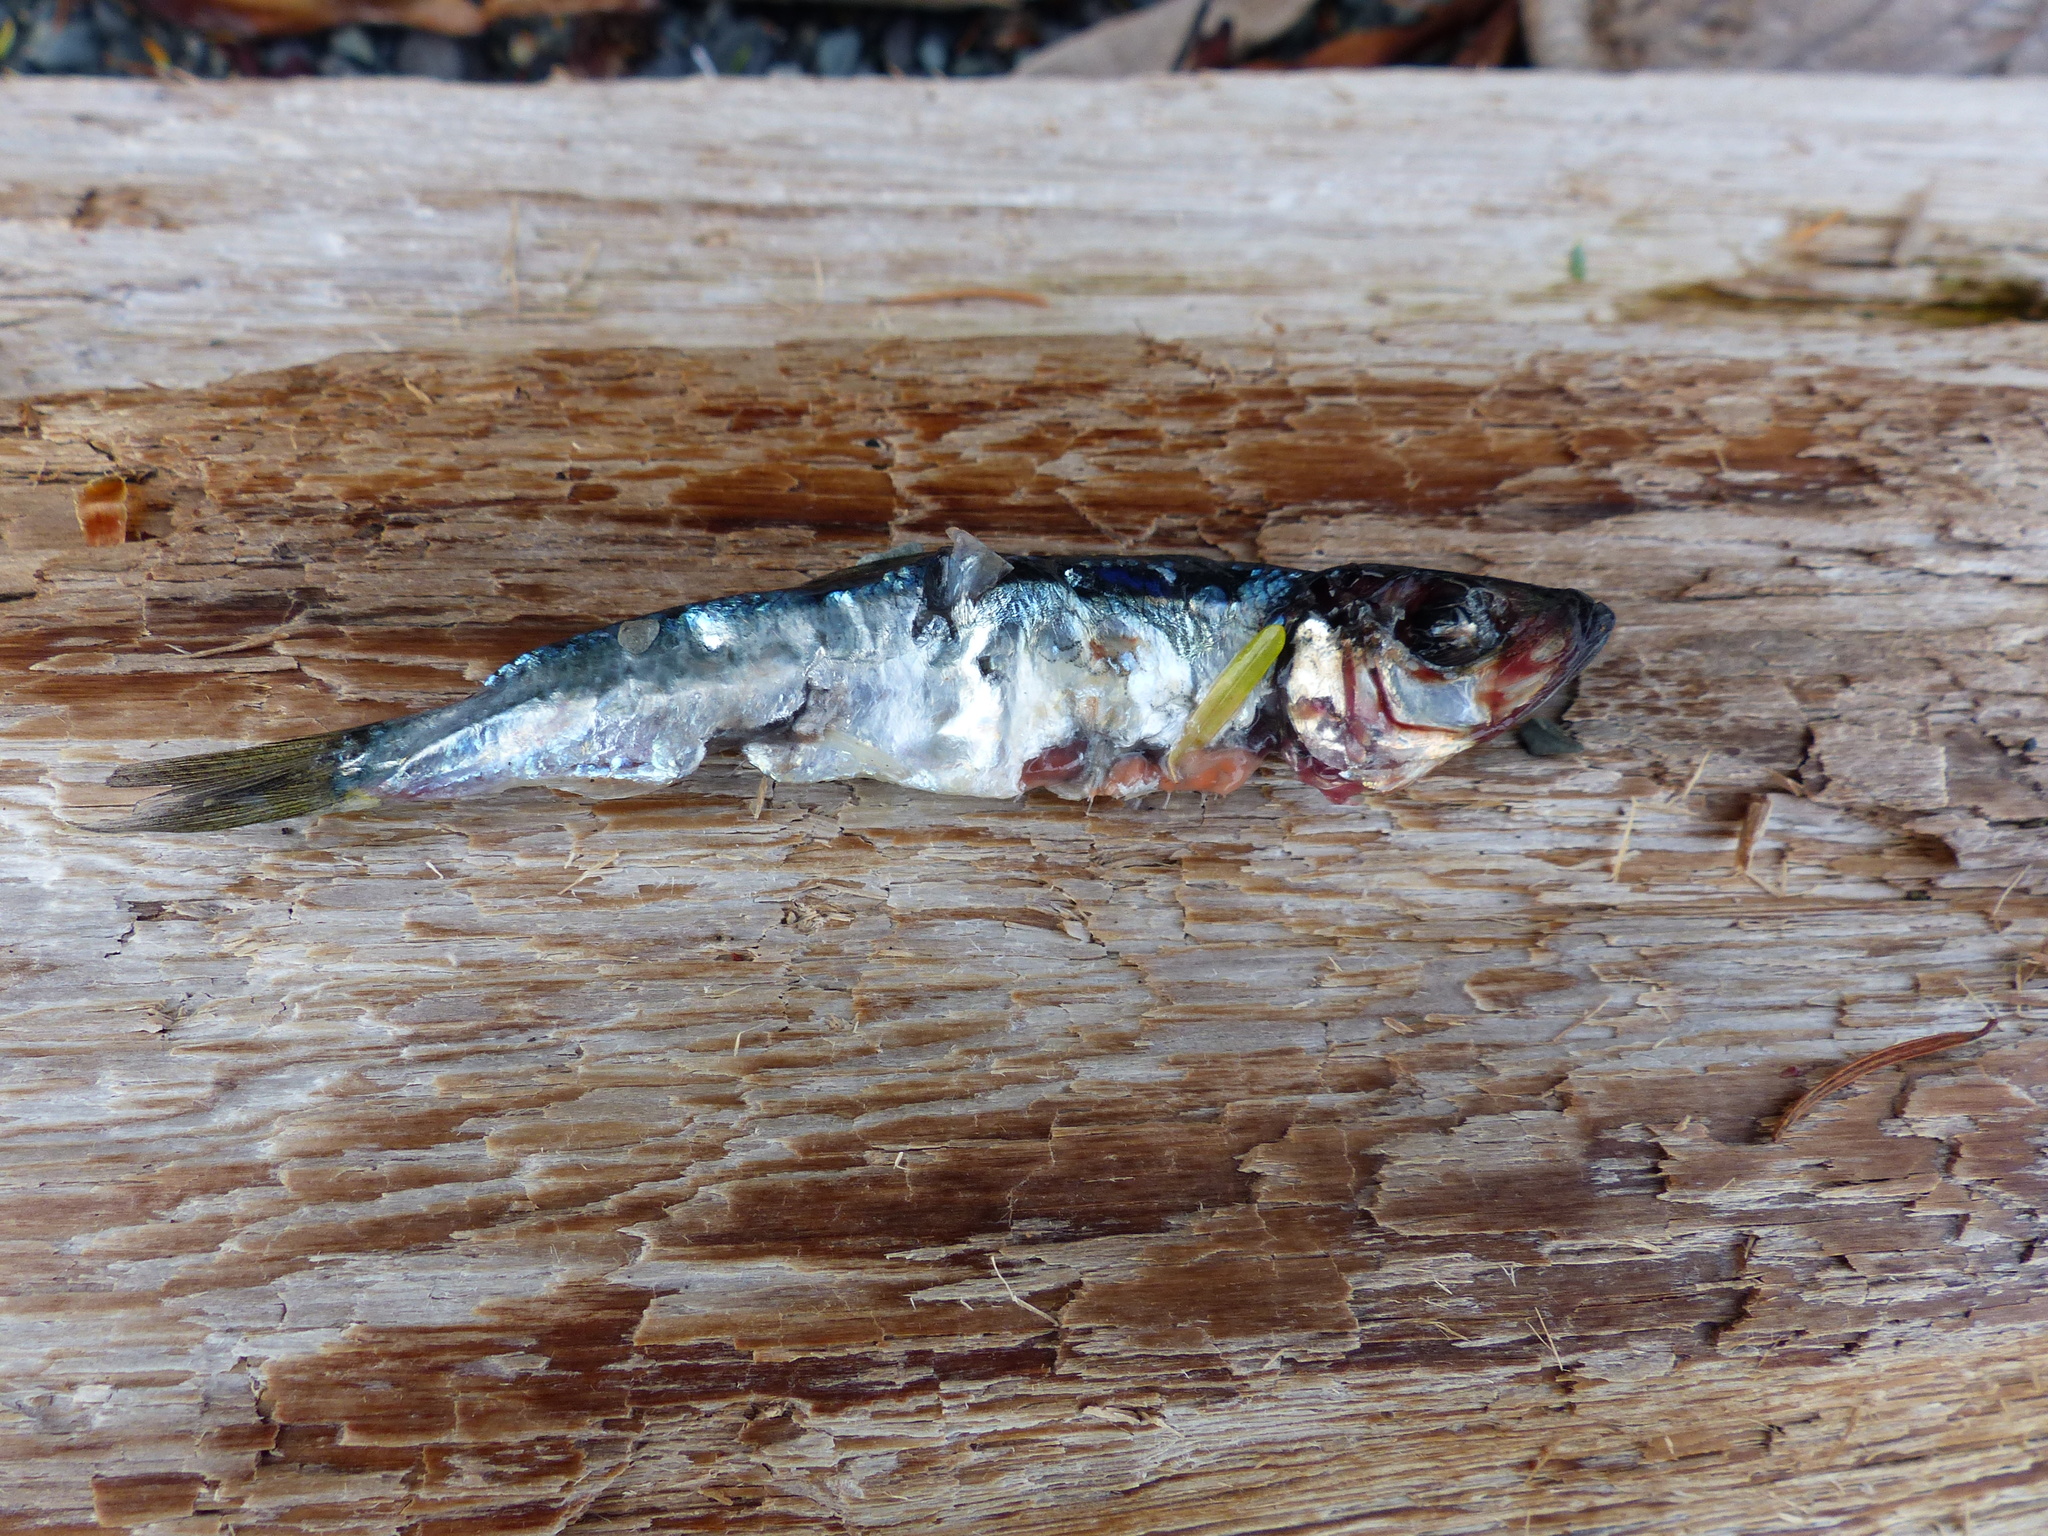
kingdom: Animalia
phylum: Chordata
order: Clupeiformes
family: Clupeidae
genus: Clupea
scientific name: Clupea pallasii
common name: Pacific herring
